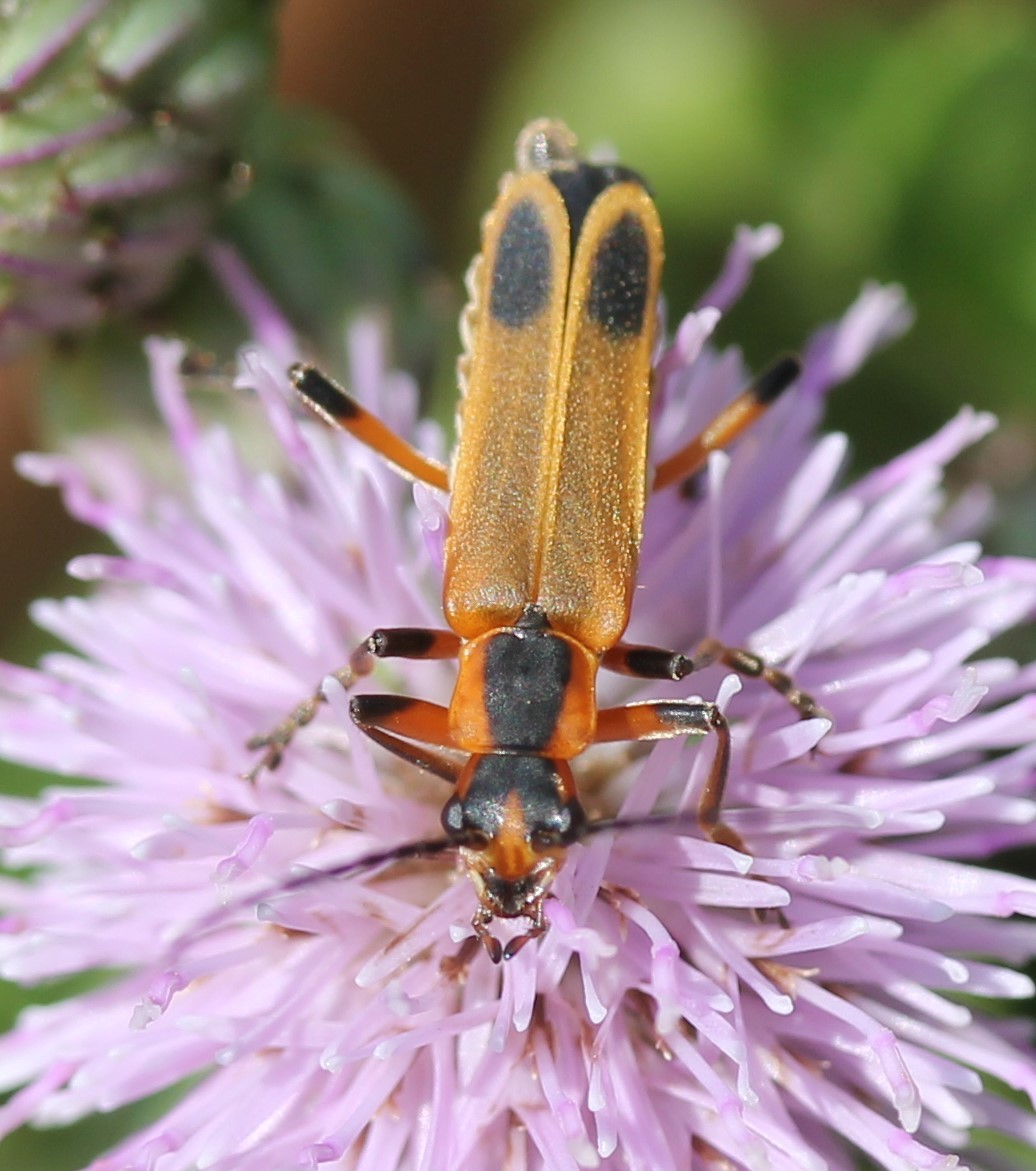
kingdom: Animalia
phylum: Arthropoda
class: Insecta
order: Coleoptera
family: Cantharidae
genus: Chauliognathus
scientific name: Chauliognathus marginatus
